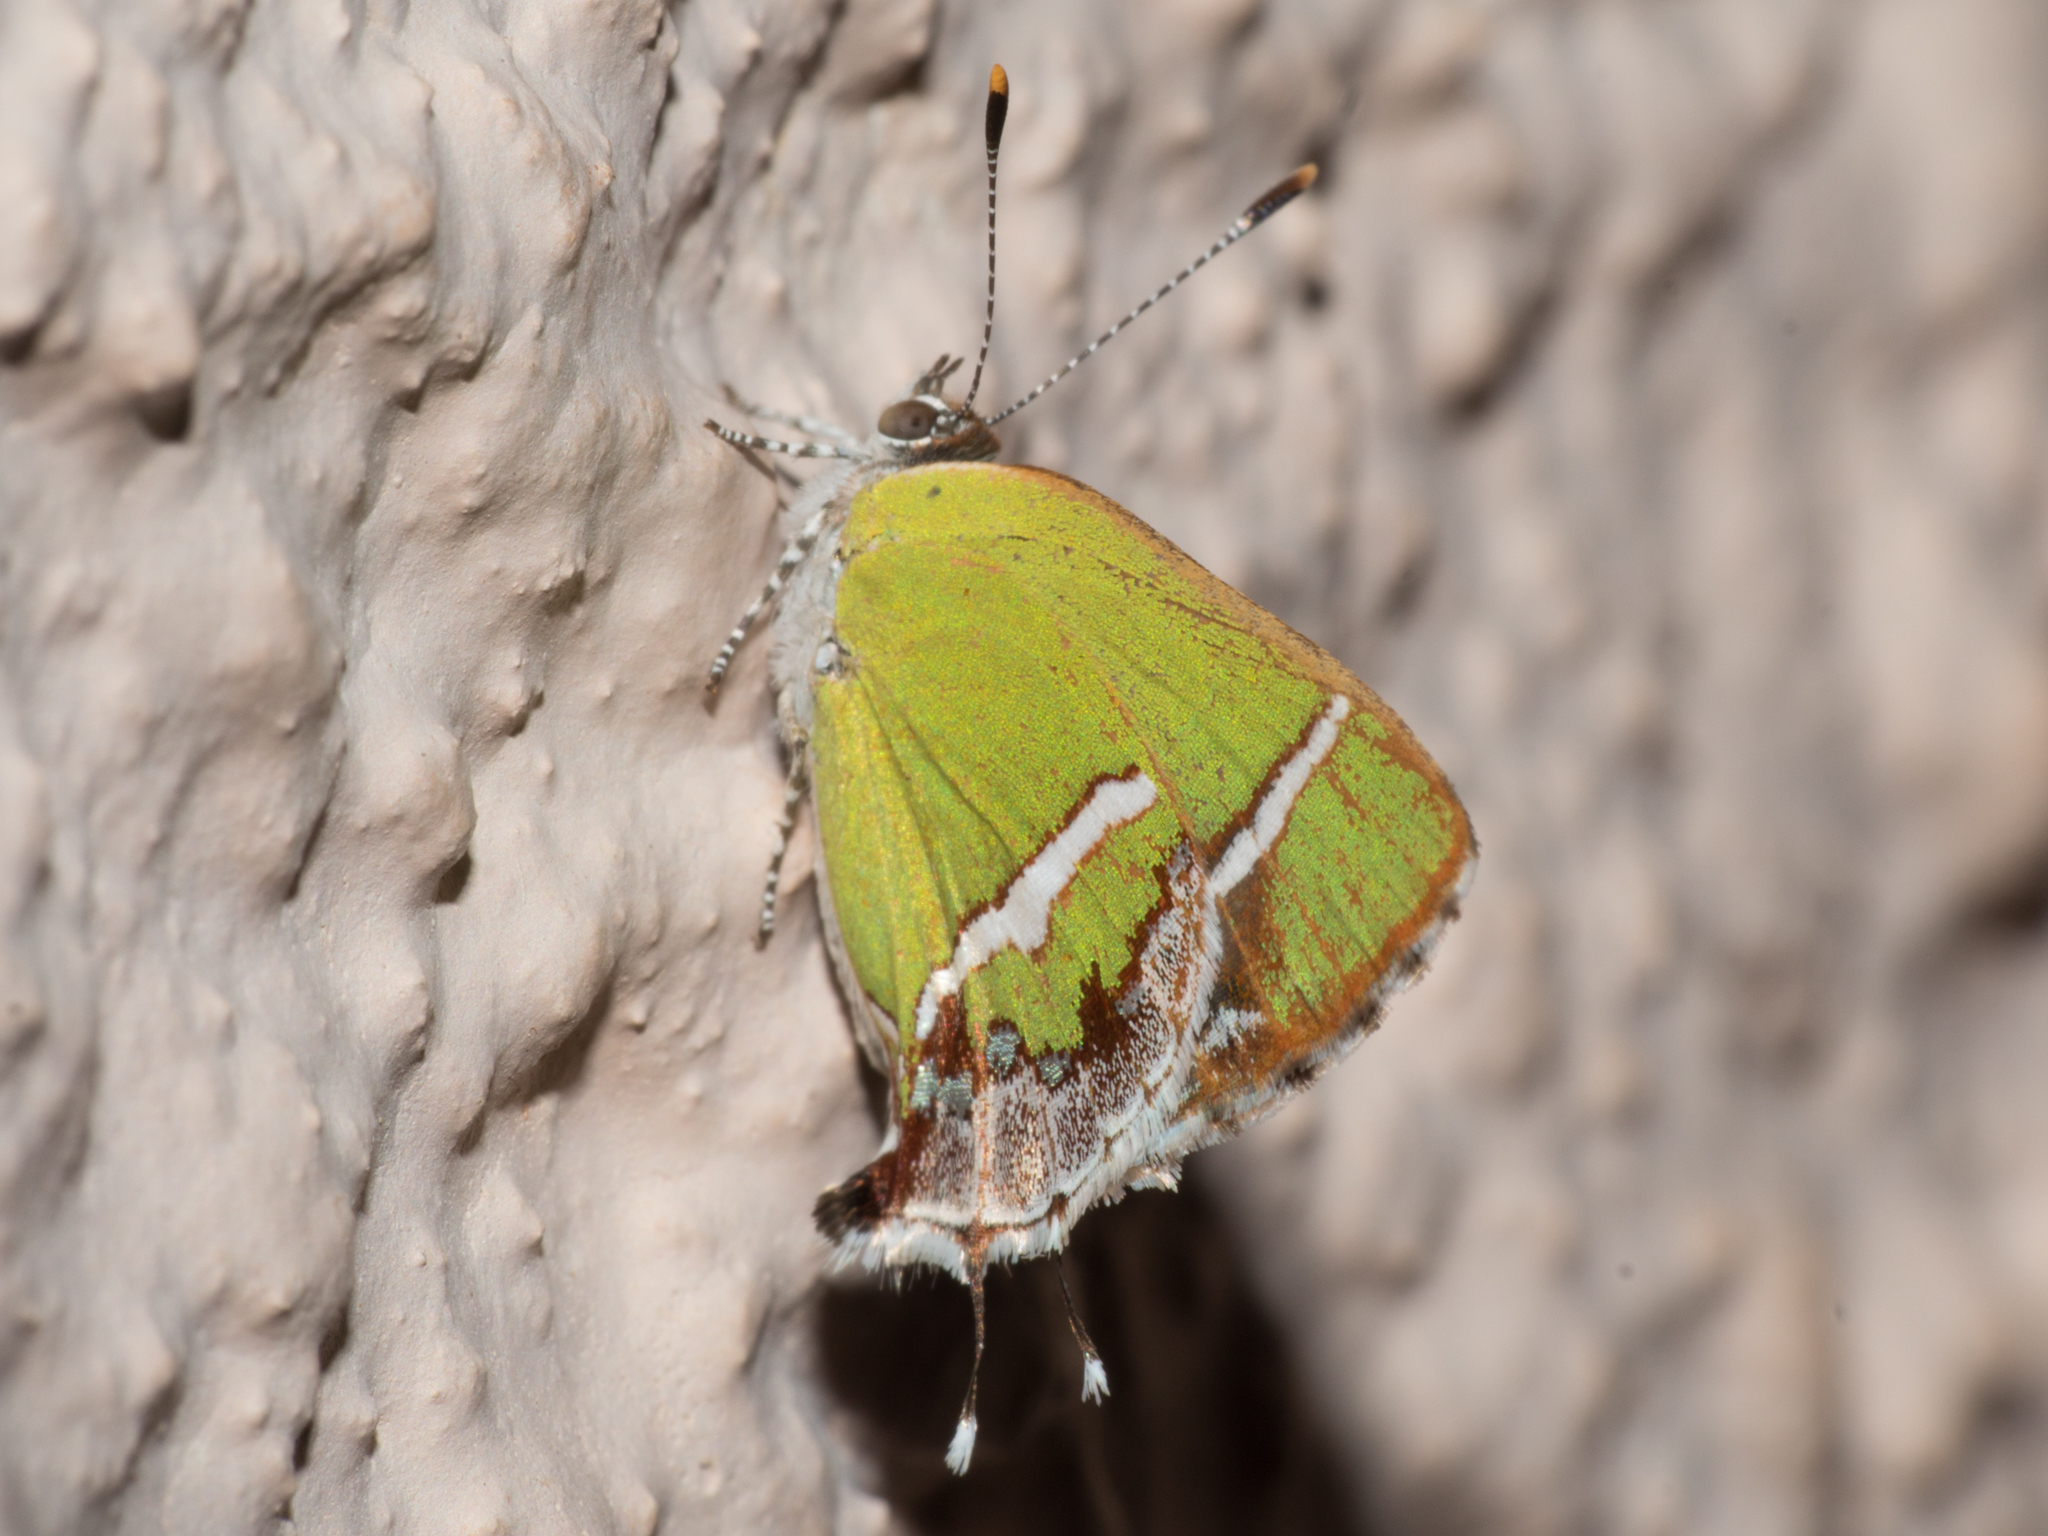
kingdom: Animalia
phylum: Arthropoda
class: Insecta
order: Lepidoptera
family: Lycaenidae
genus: Chlorostrymon
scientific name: Chlorostrymon simaethis
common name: Silver-banded hairstreak
